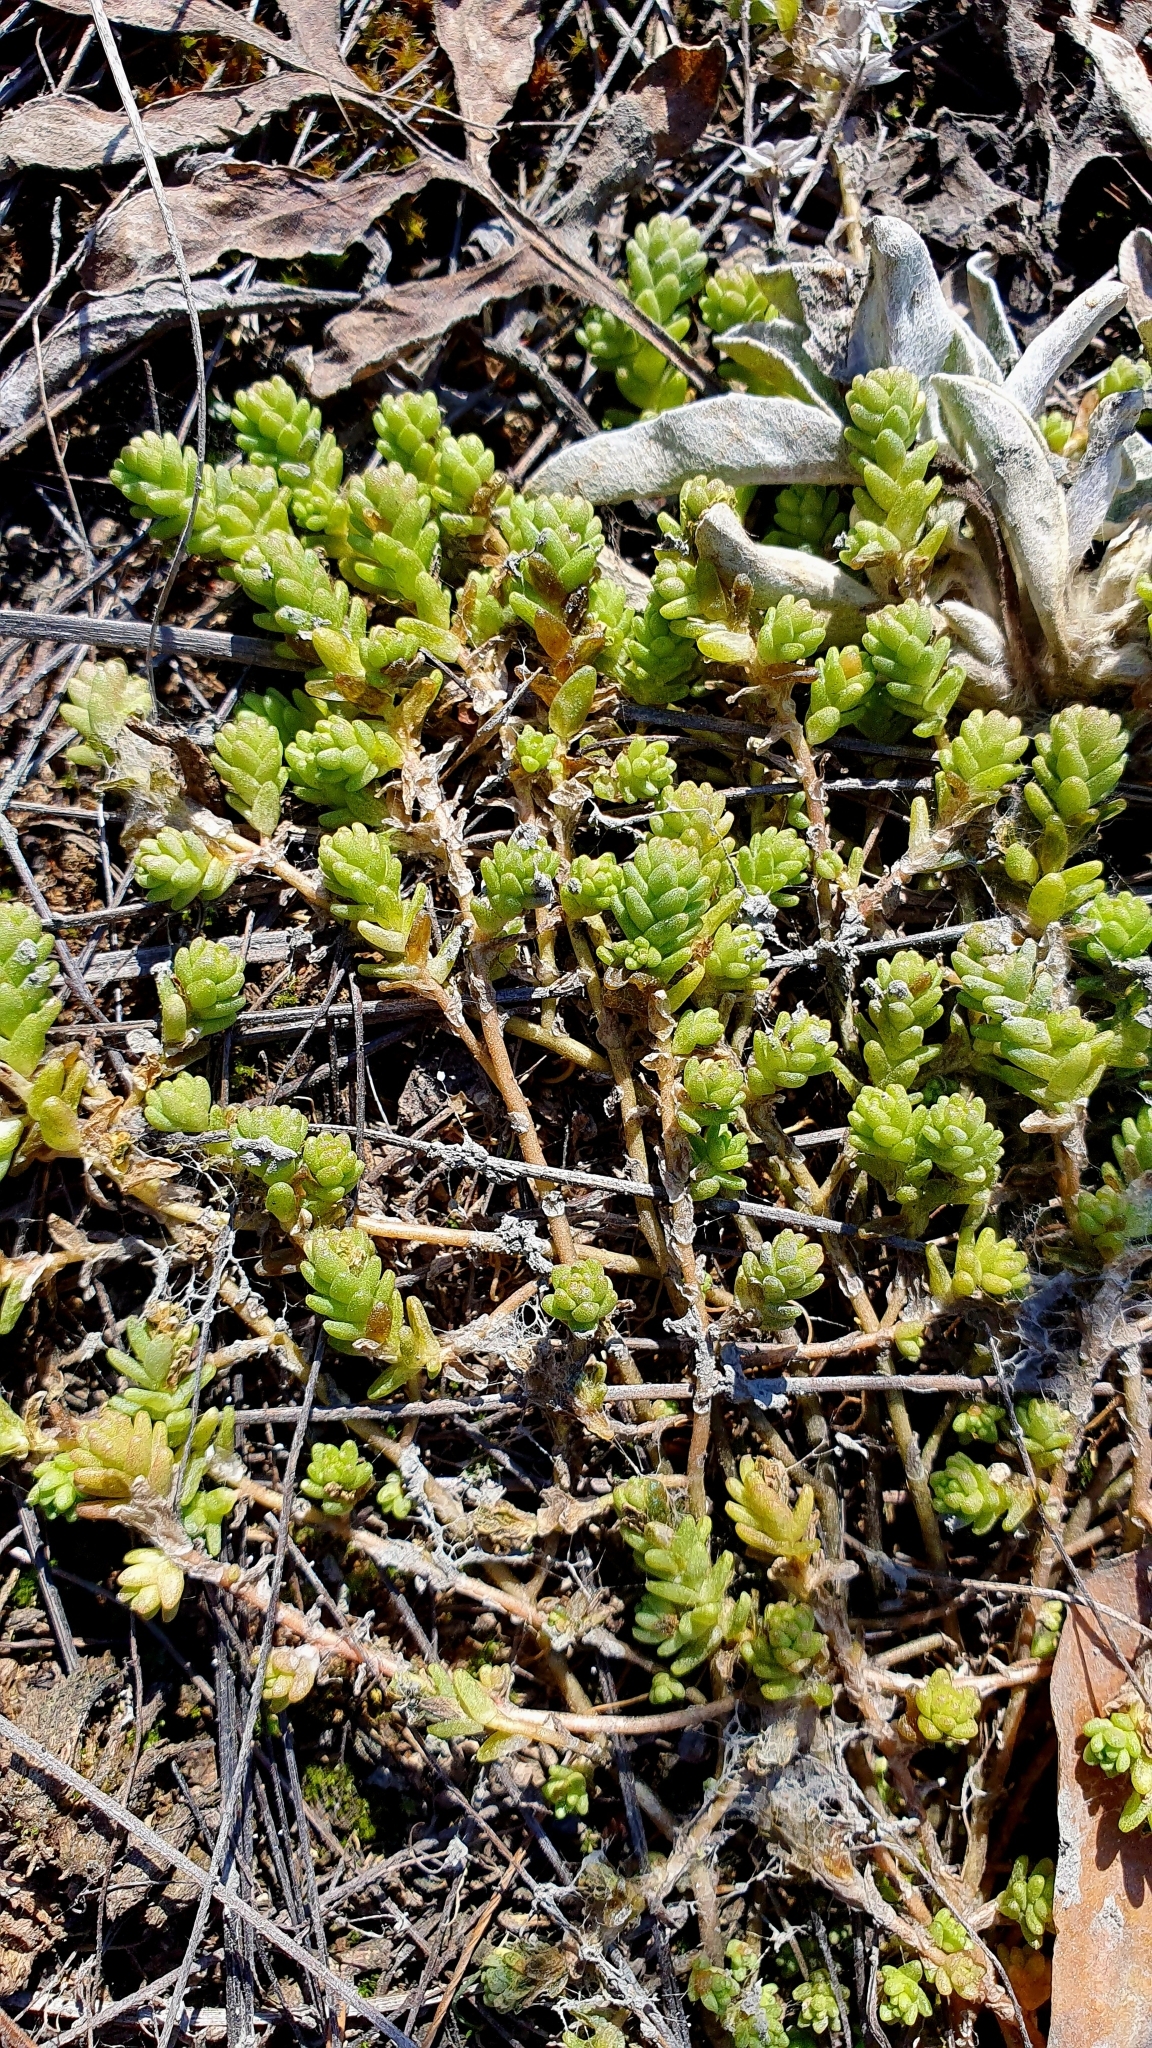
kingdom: Plantae
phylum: Tracheophyta
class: Magnoliopsida
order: Saxifragales
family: Crassulaceae
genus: Sedum
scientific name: Sedum acre
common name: Biting stonecrop
